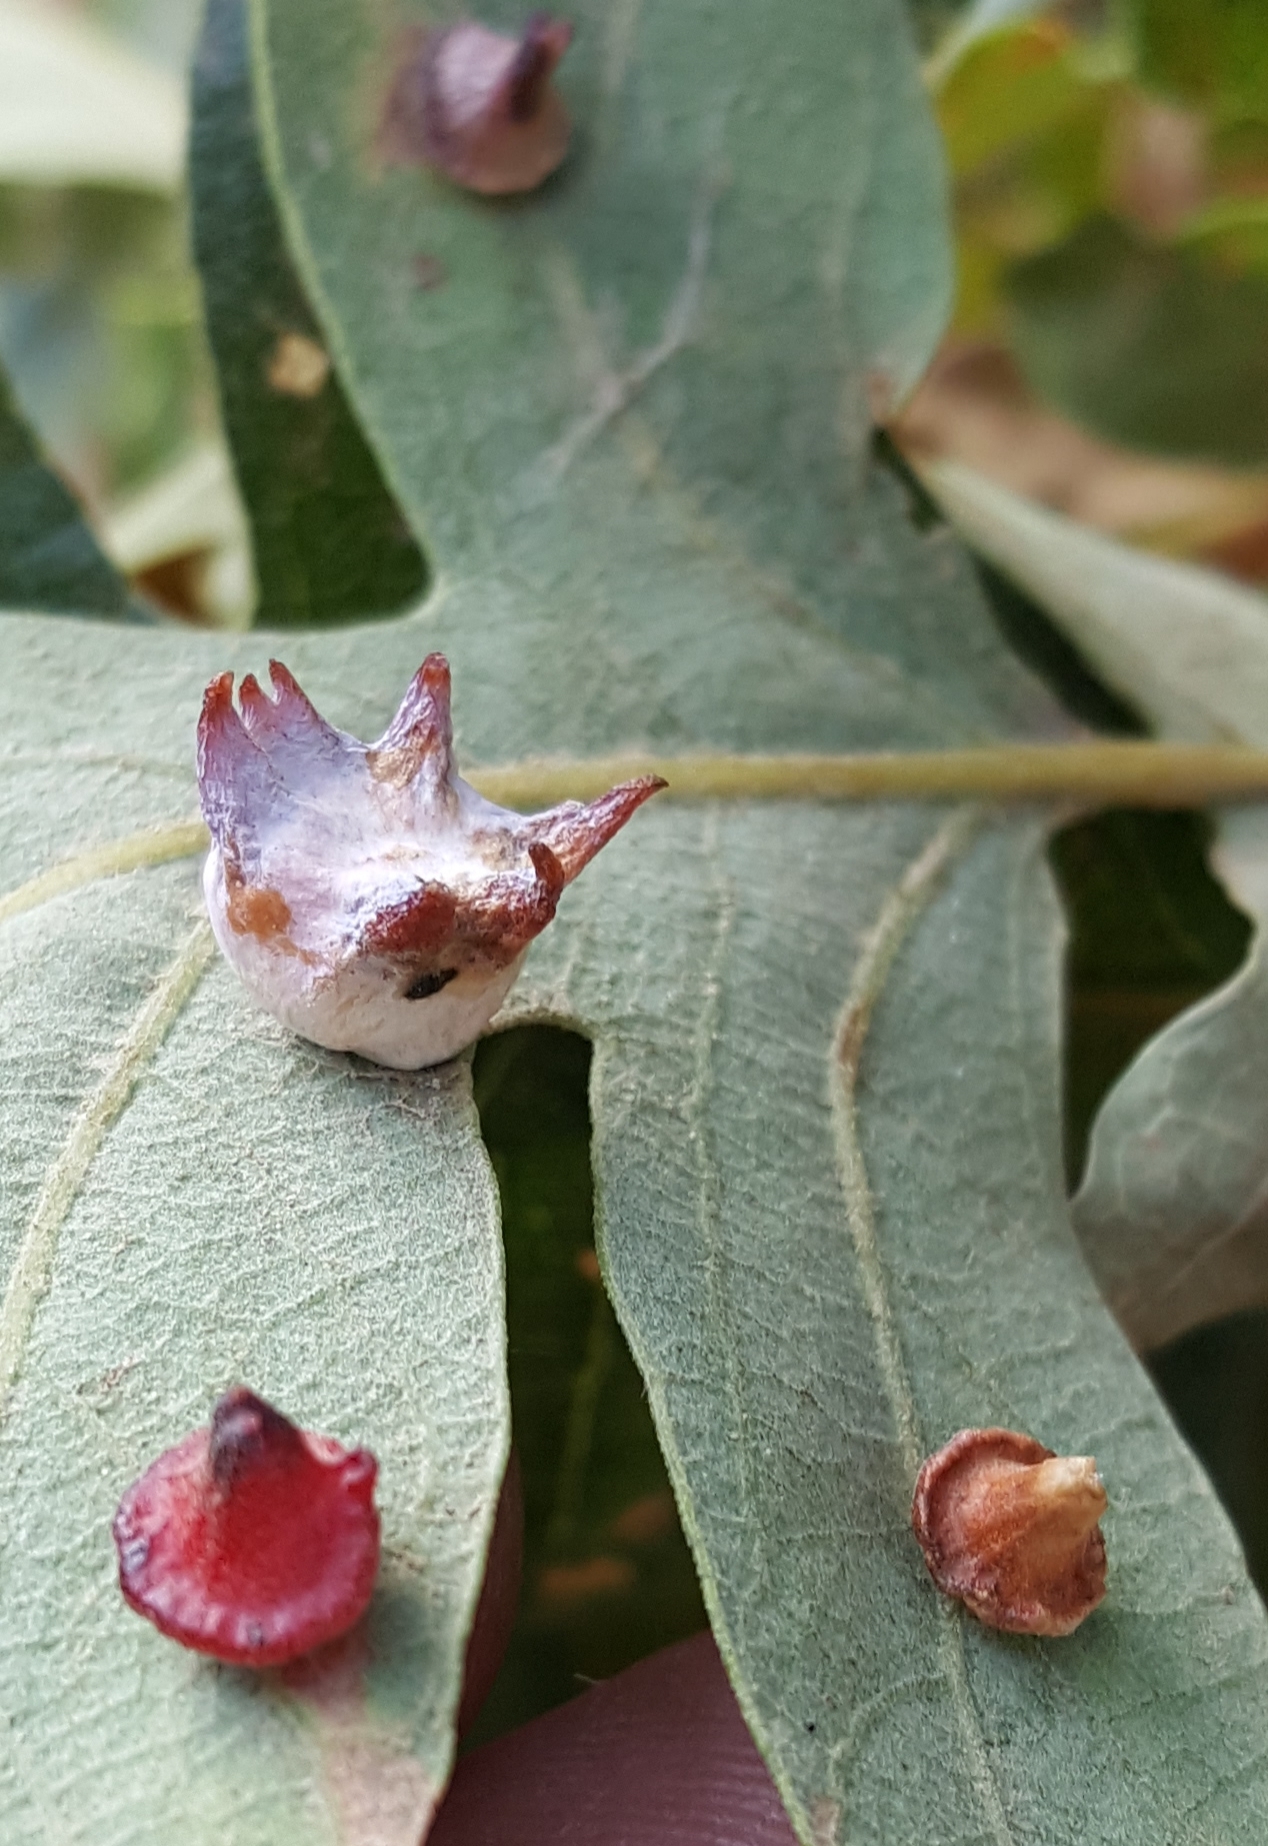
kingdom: Animalia
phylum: Arthropoda
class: Insecta
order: Hymenoptera
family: Cynipidae
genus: Andricus
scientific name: Andricus
